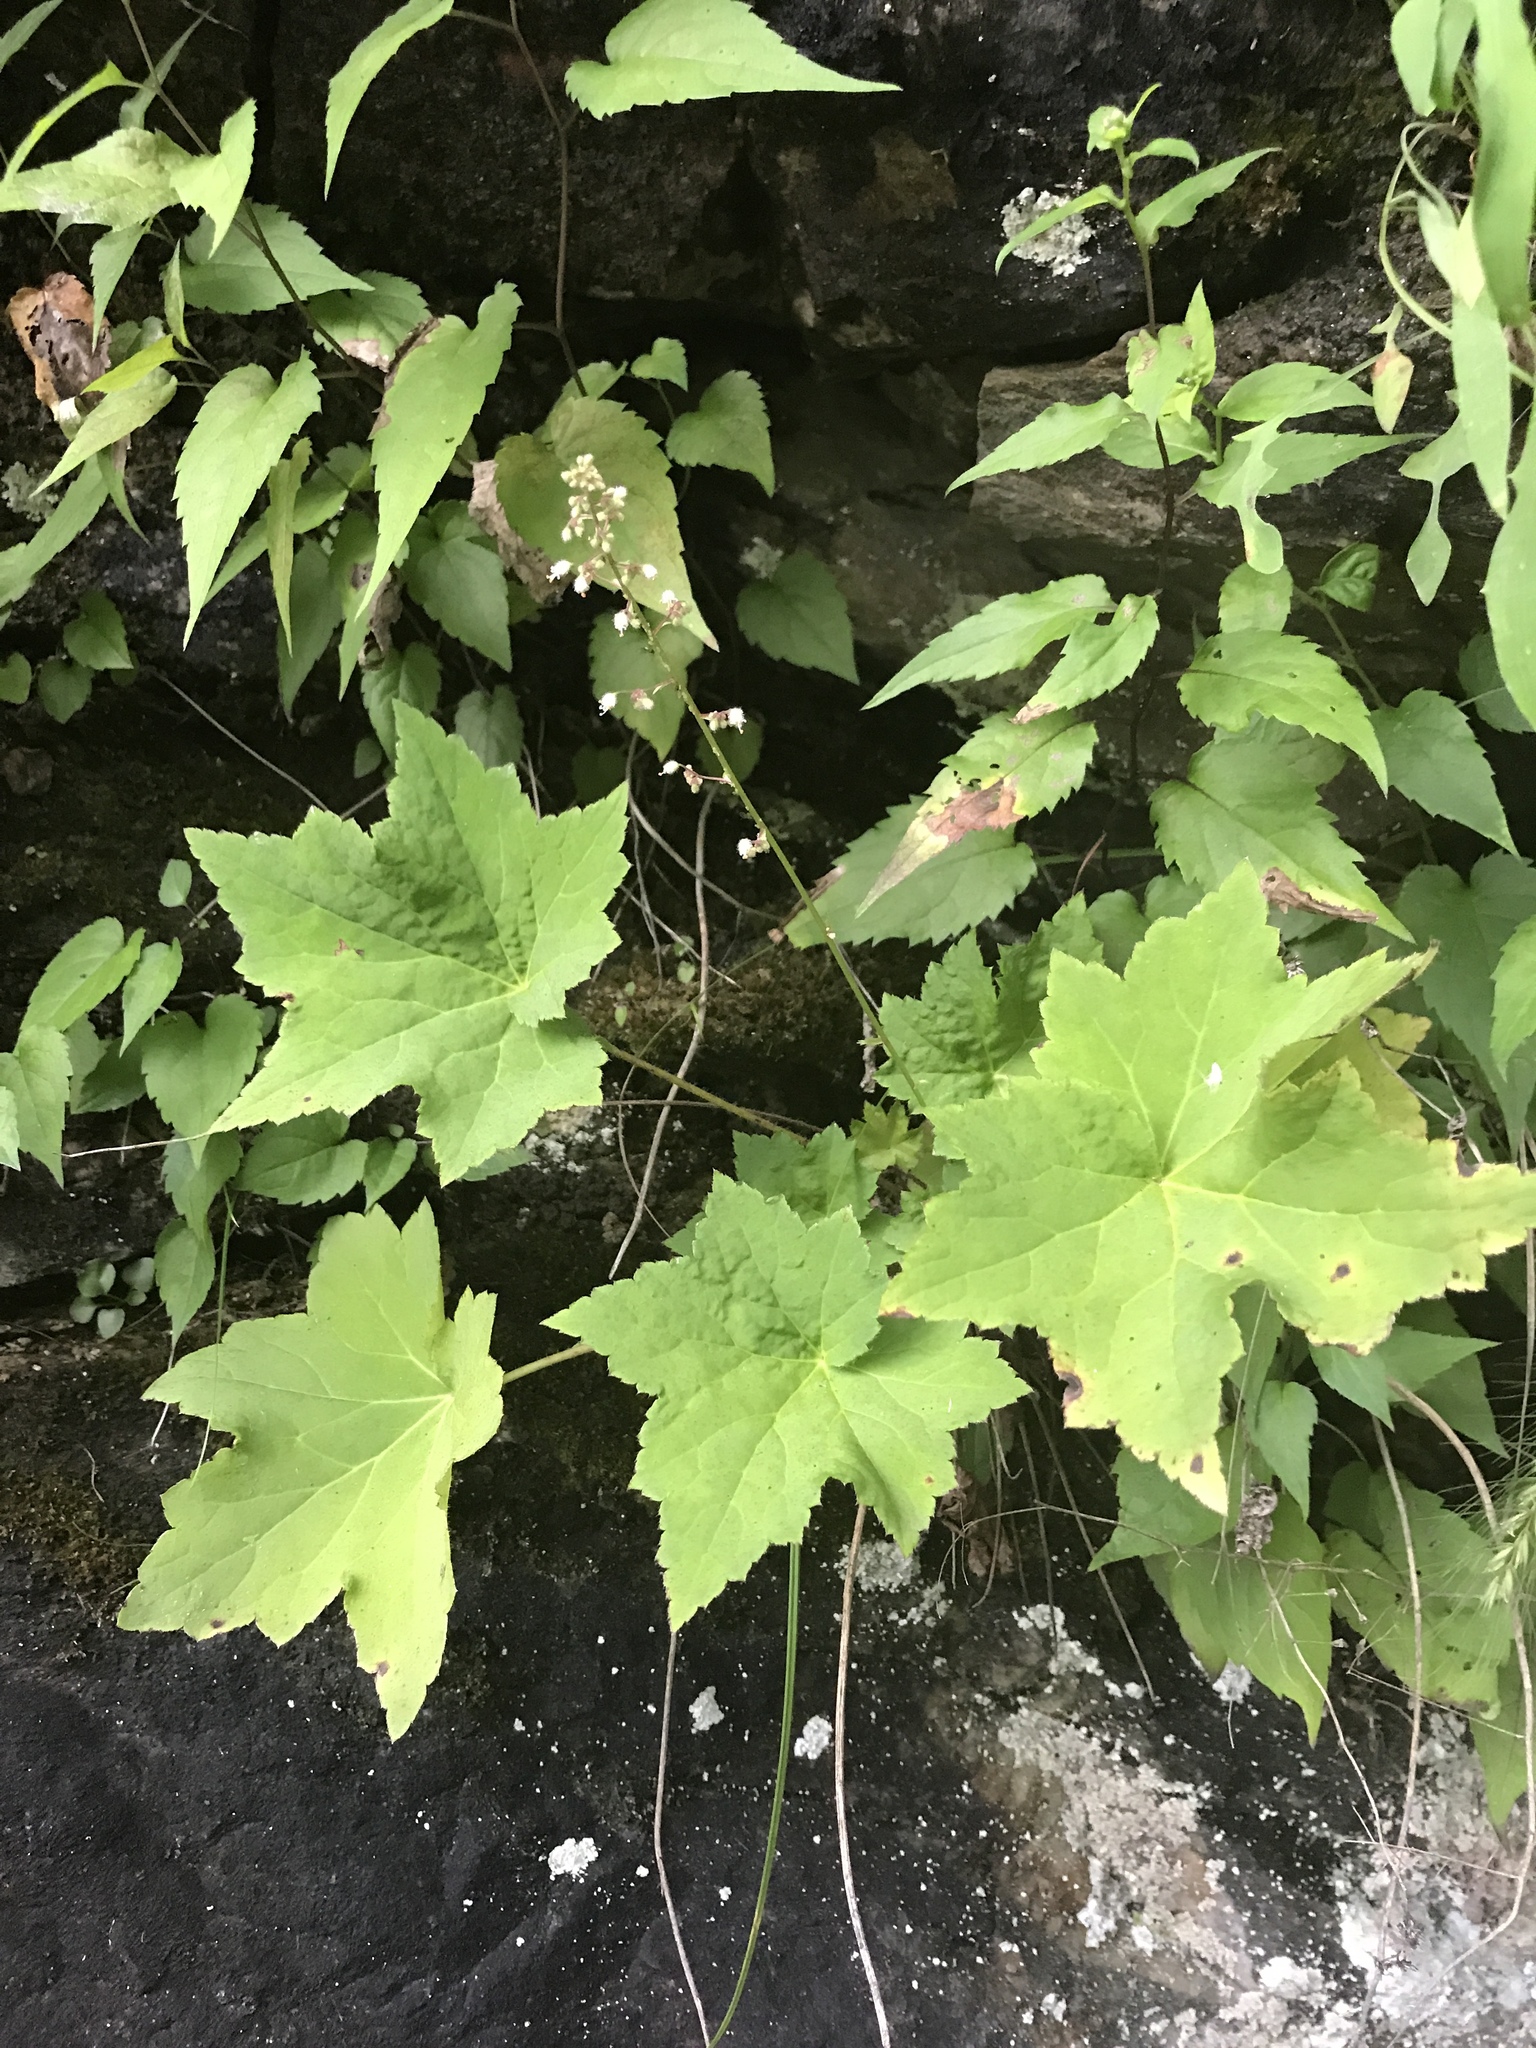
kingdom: Plantae
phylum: Tracheophyta
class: Magnoliopsida
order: Saxifragales
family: Saxifragaceae
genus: Heuchera
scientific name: Heuchera villosa
